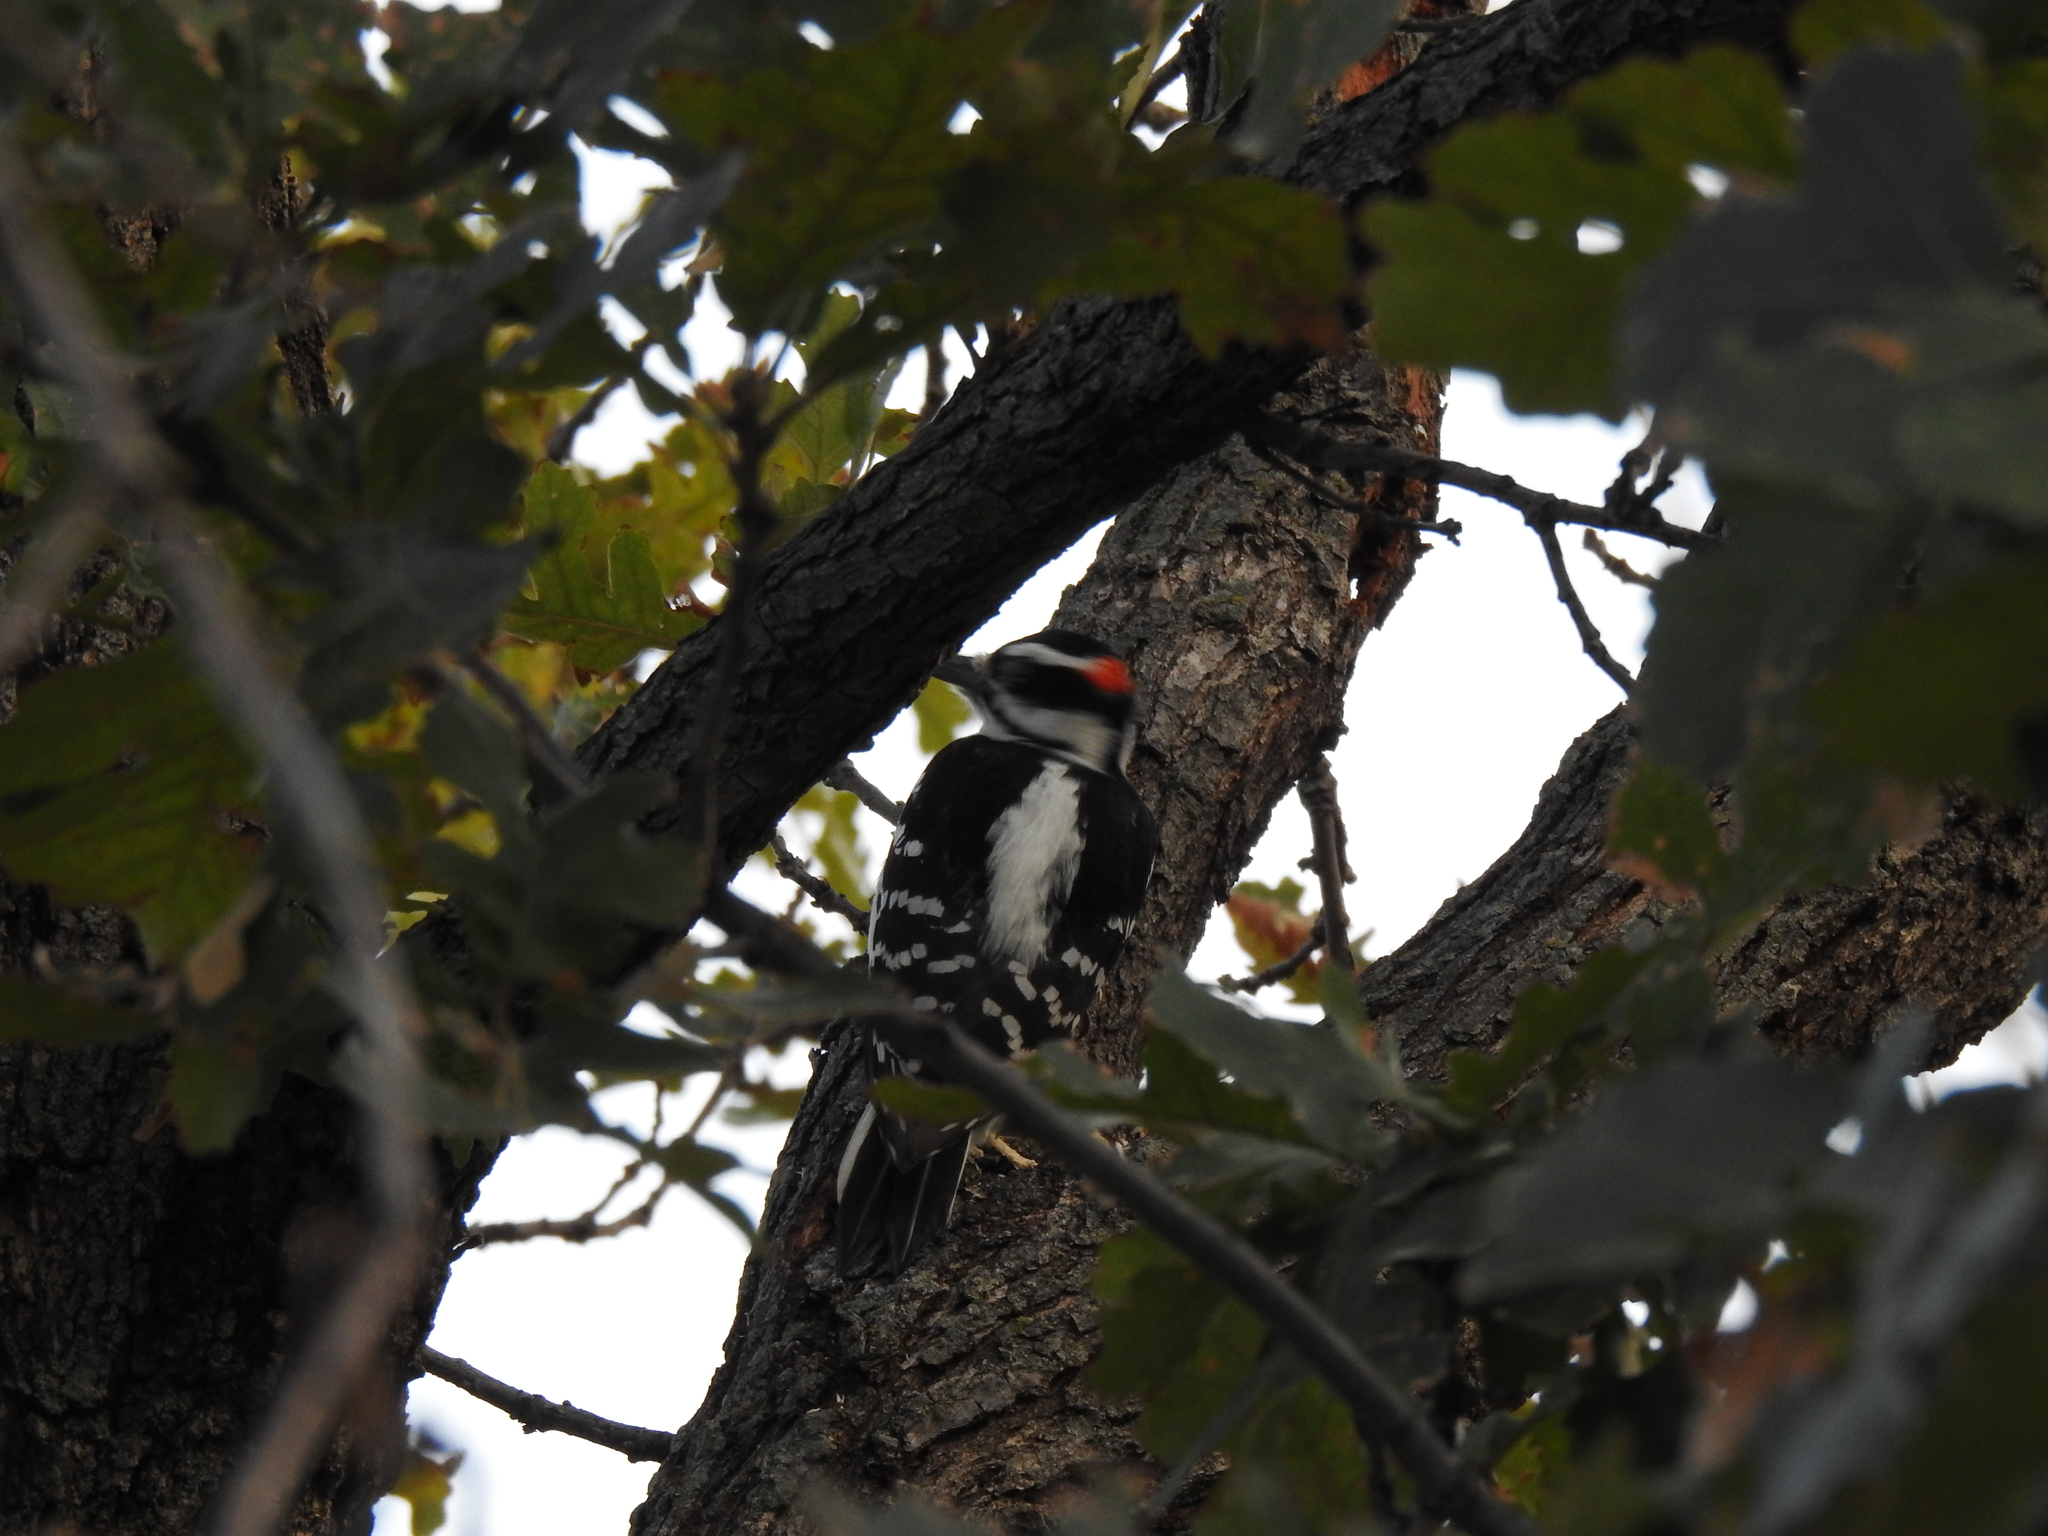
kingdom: Animalia
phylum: Chordata
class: Aves
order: Piciformes
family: Picidae
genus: Leuconotopicus
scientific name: Leuconotopicus villosus
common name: Hairy woodpecker
